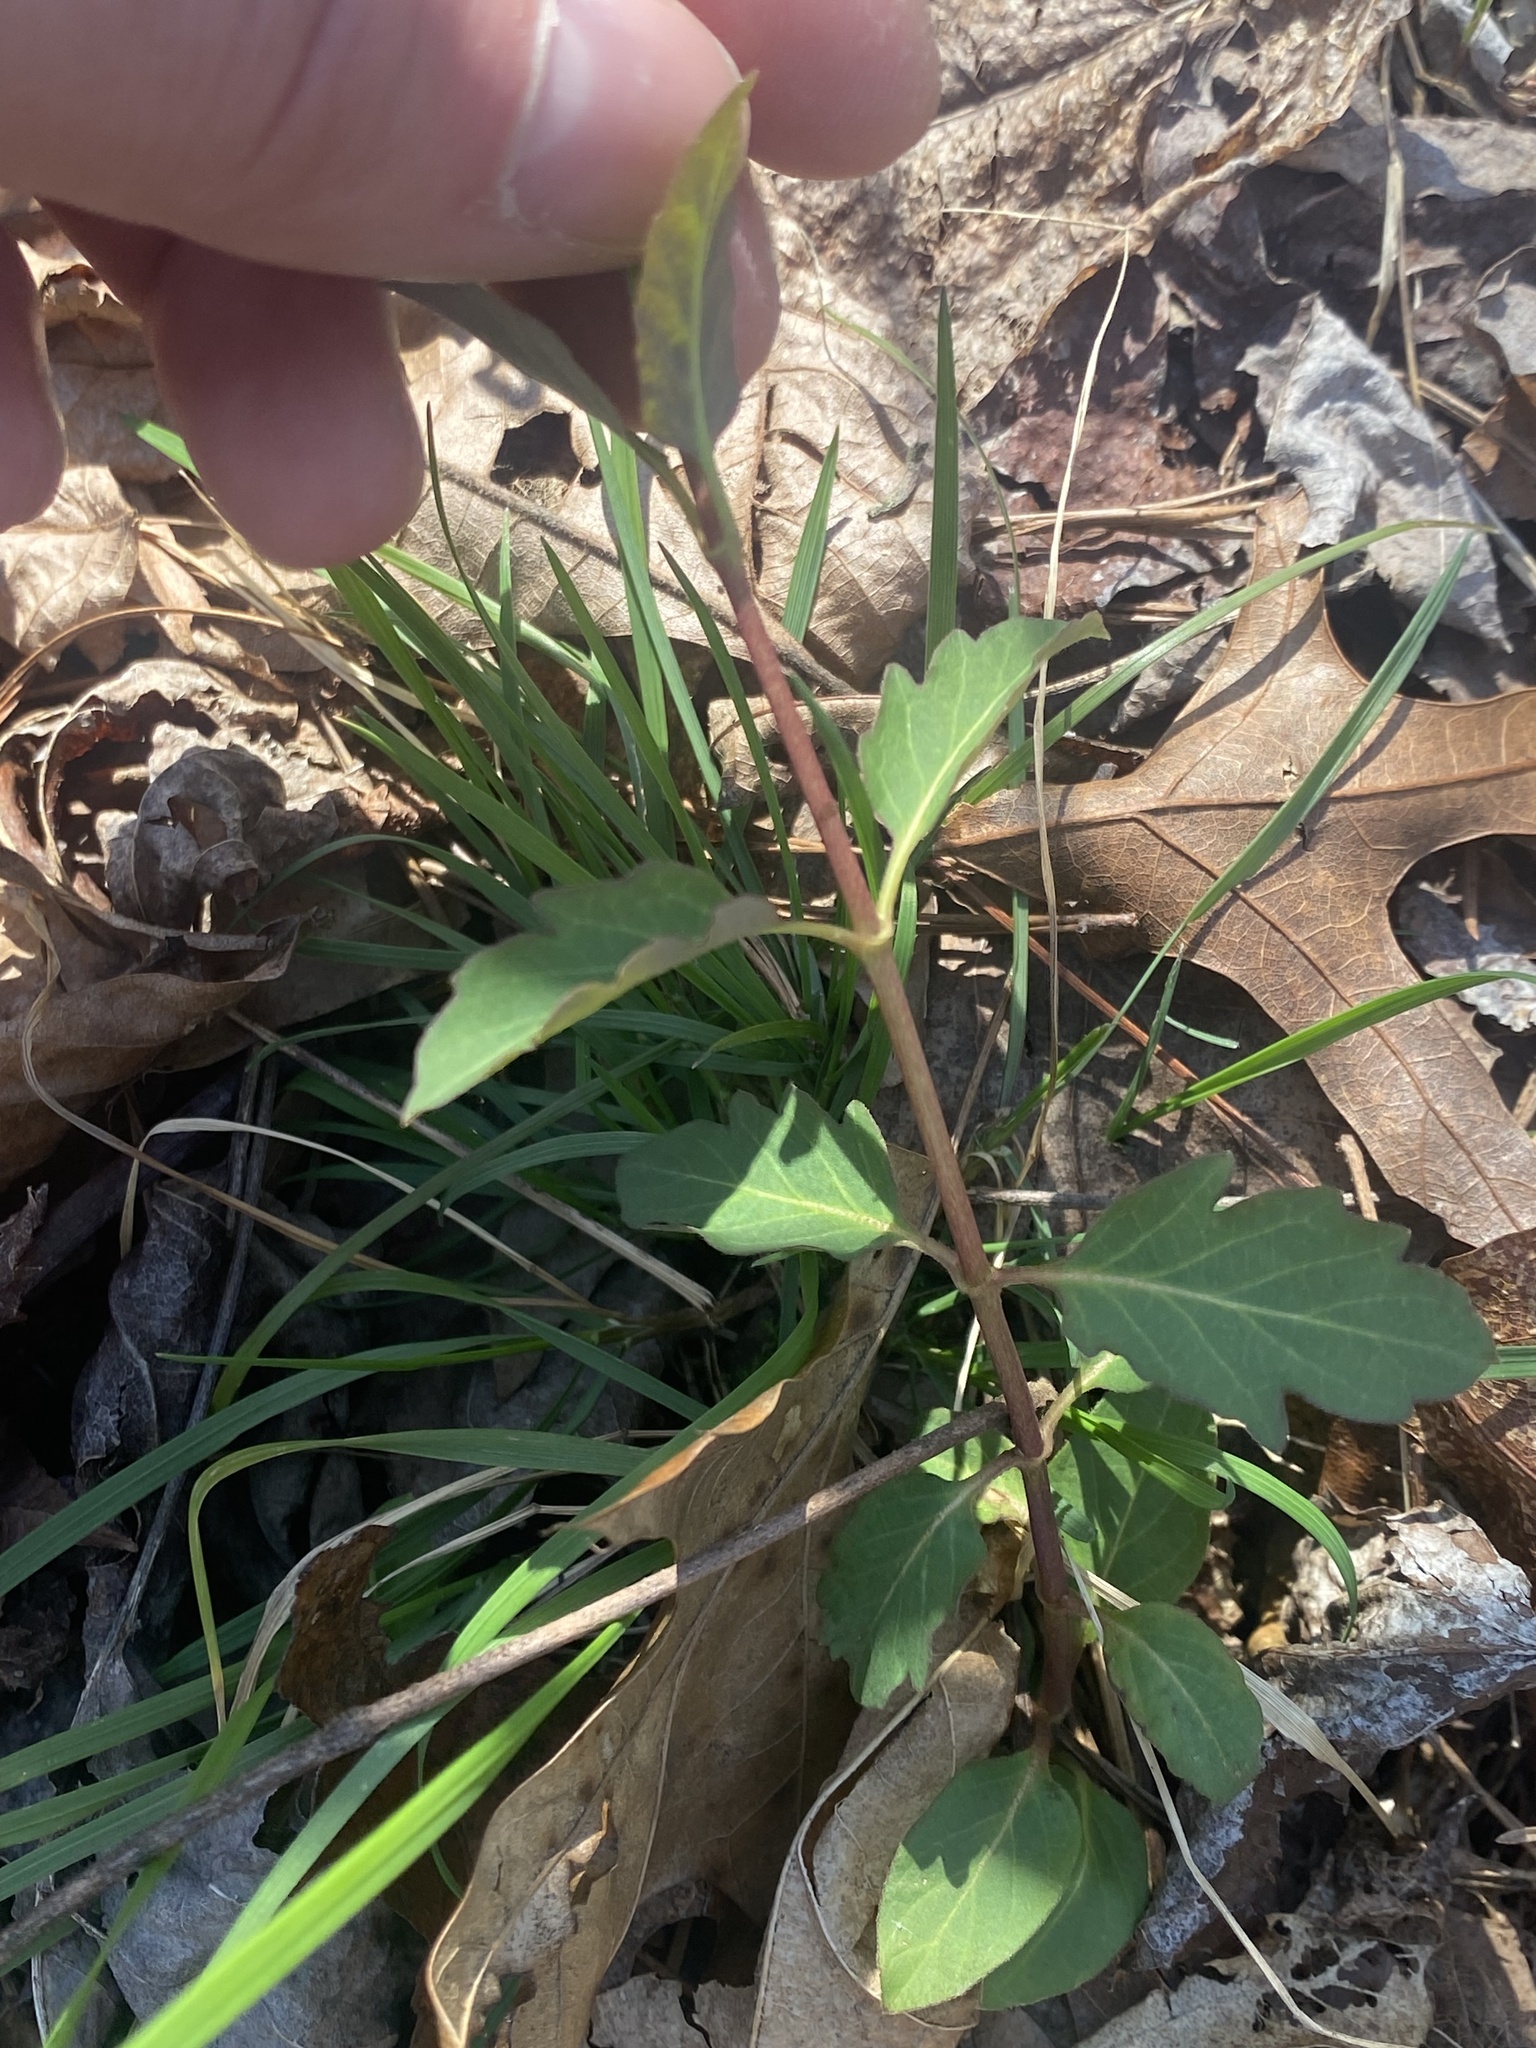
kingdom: Plantae
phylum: Tracheophyta
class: Magnoliopsida
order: Dipsacales
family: Caprifoliaceae
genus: Lonicera
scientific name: Lonicera japonica
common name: Japanese honeysuckle
